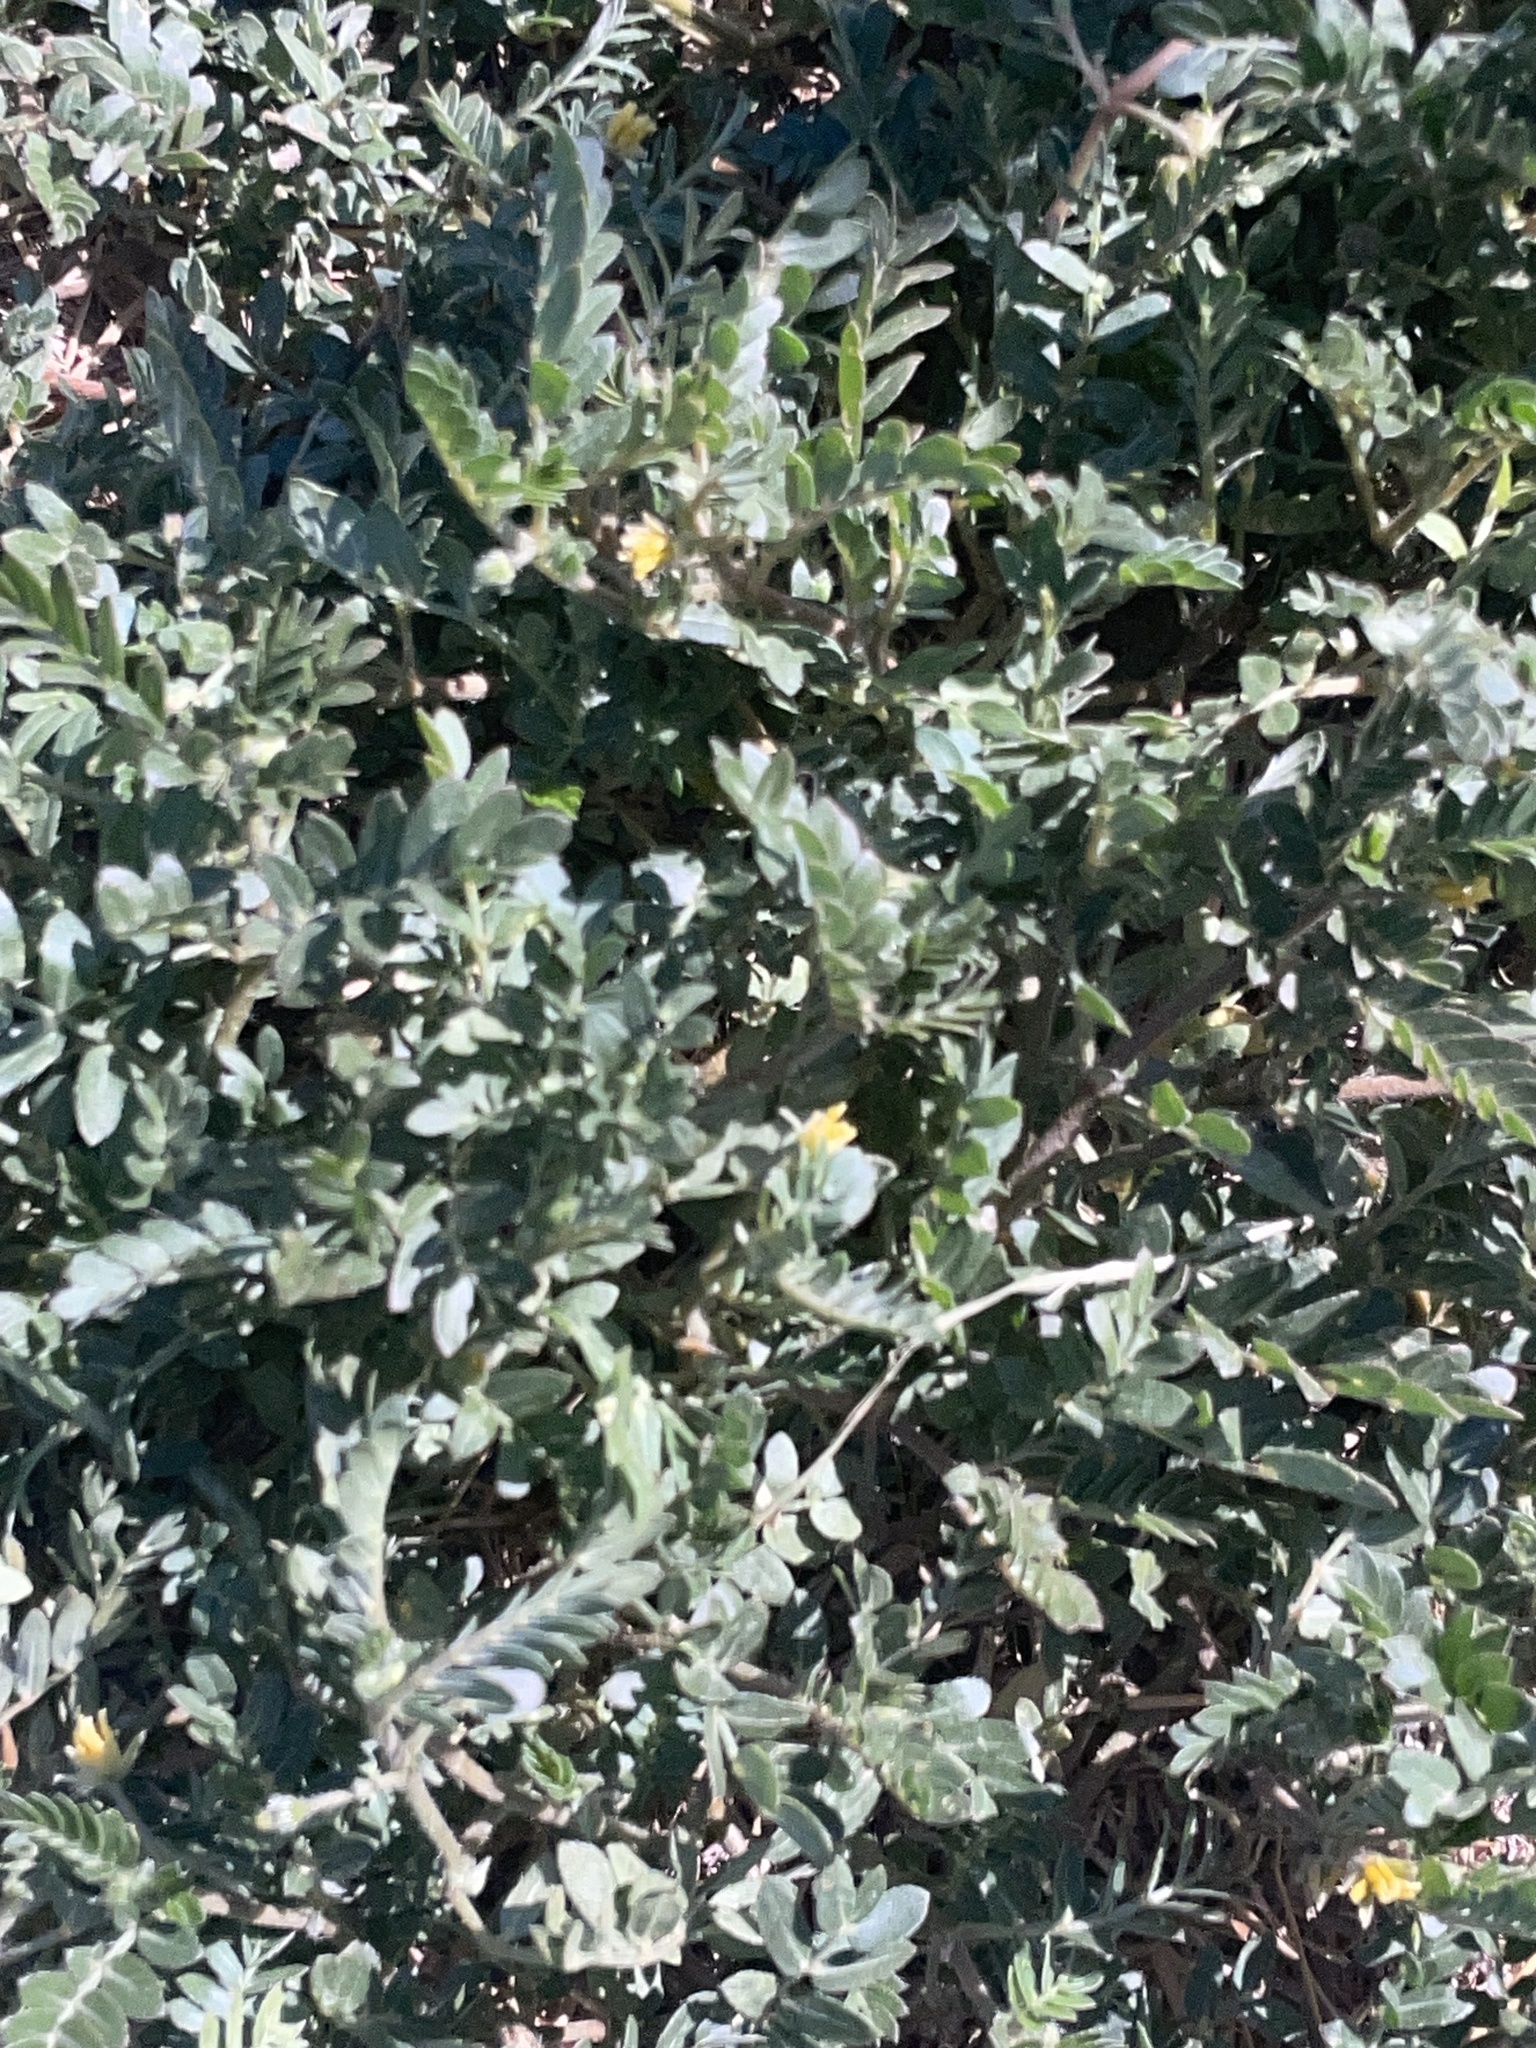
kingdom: Plantae
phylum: Tracheophyta
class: Magnoliopsida
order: Zygophyllales
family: Zygophyllaceae
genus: Tribulus
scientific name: Tribulus terrestris
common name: Puncturevine
